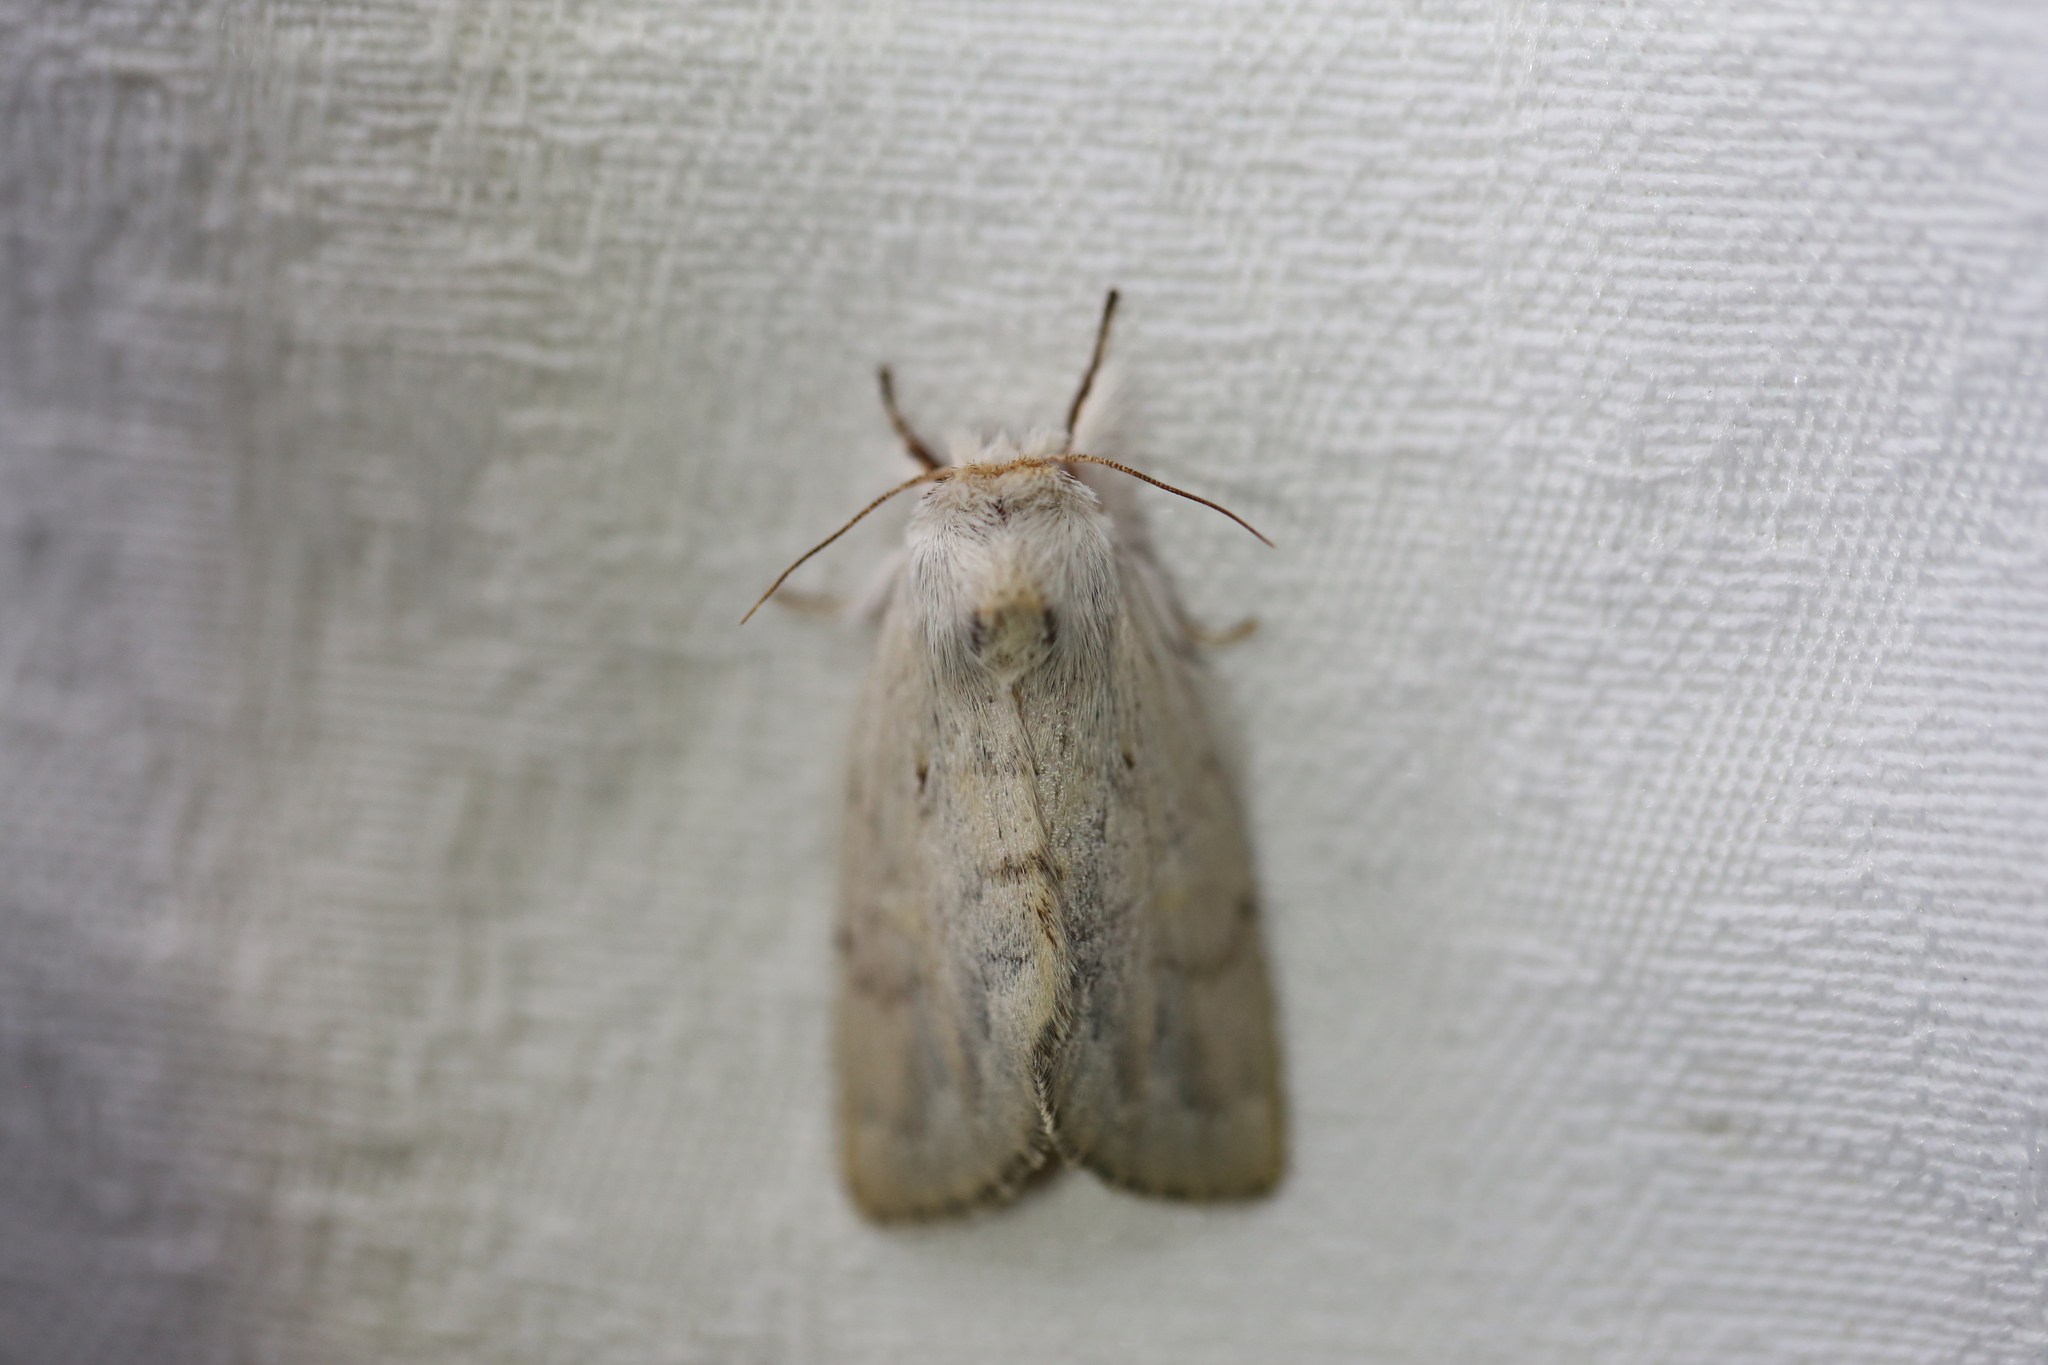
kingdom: Animalia
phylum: Arthropoda
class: Insecta
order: Lepidoptera
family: Notodontidae
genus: Pheraspis
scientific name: Pheraspis spodea
